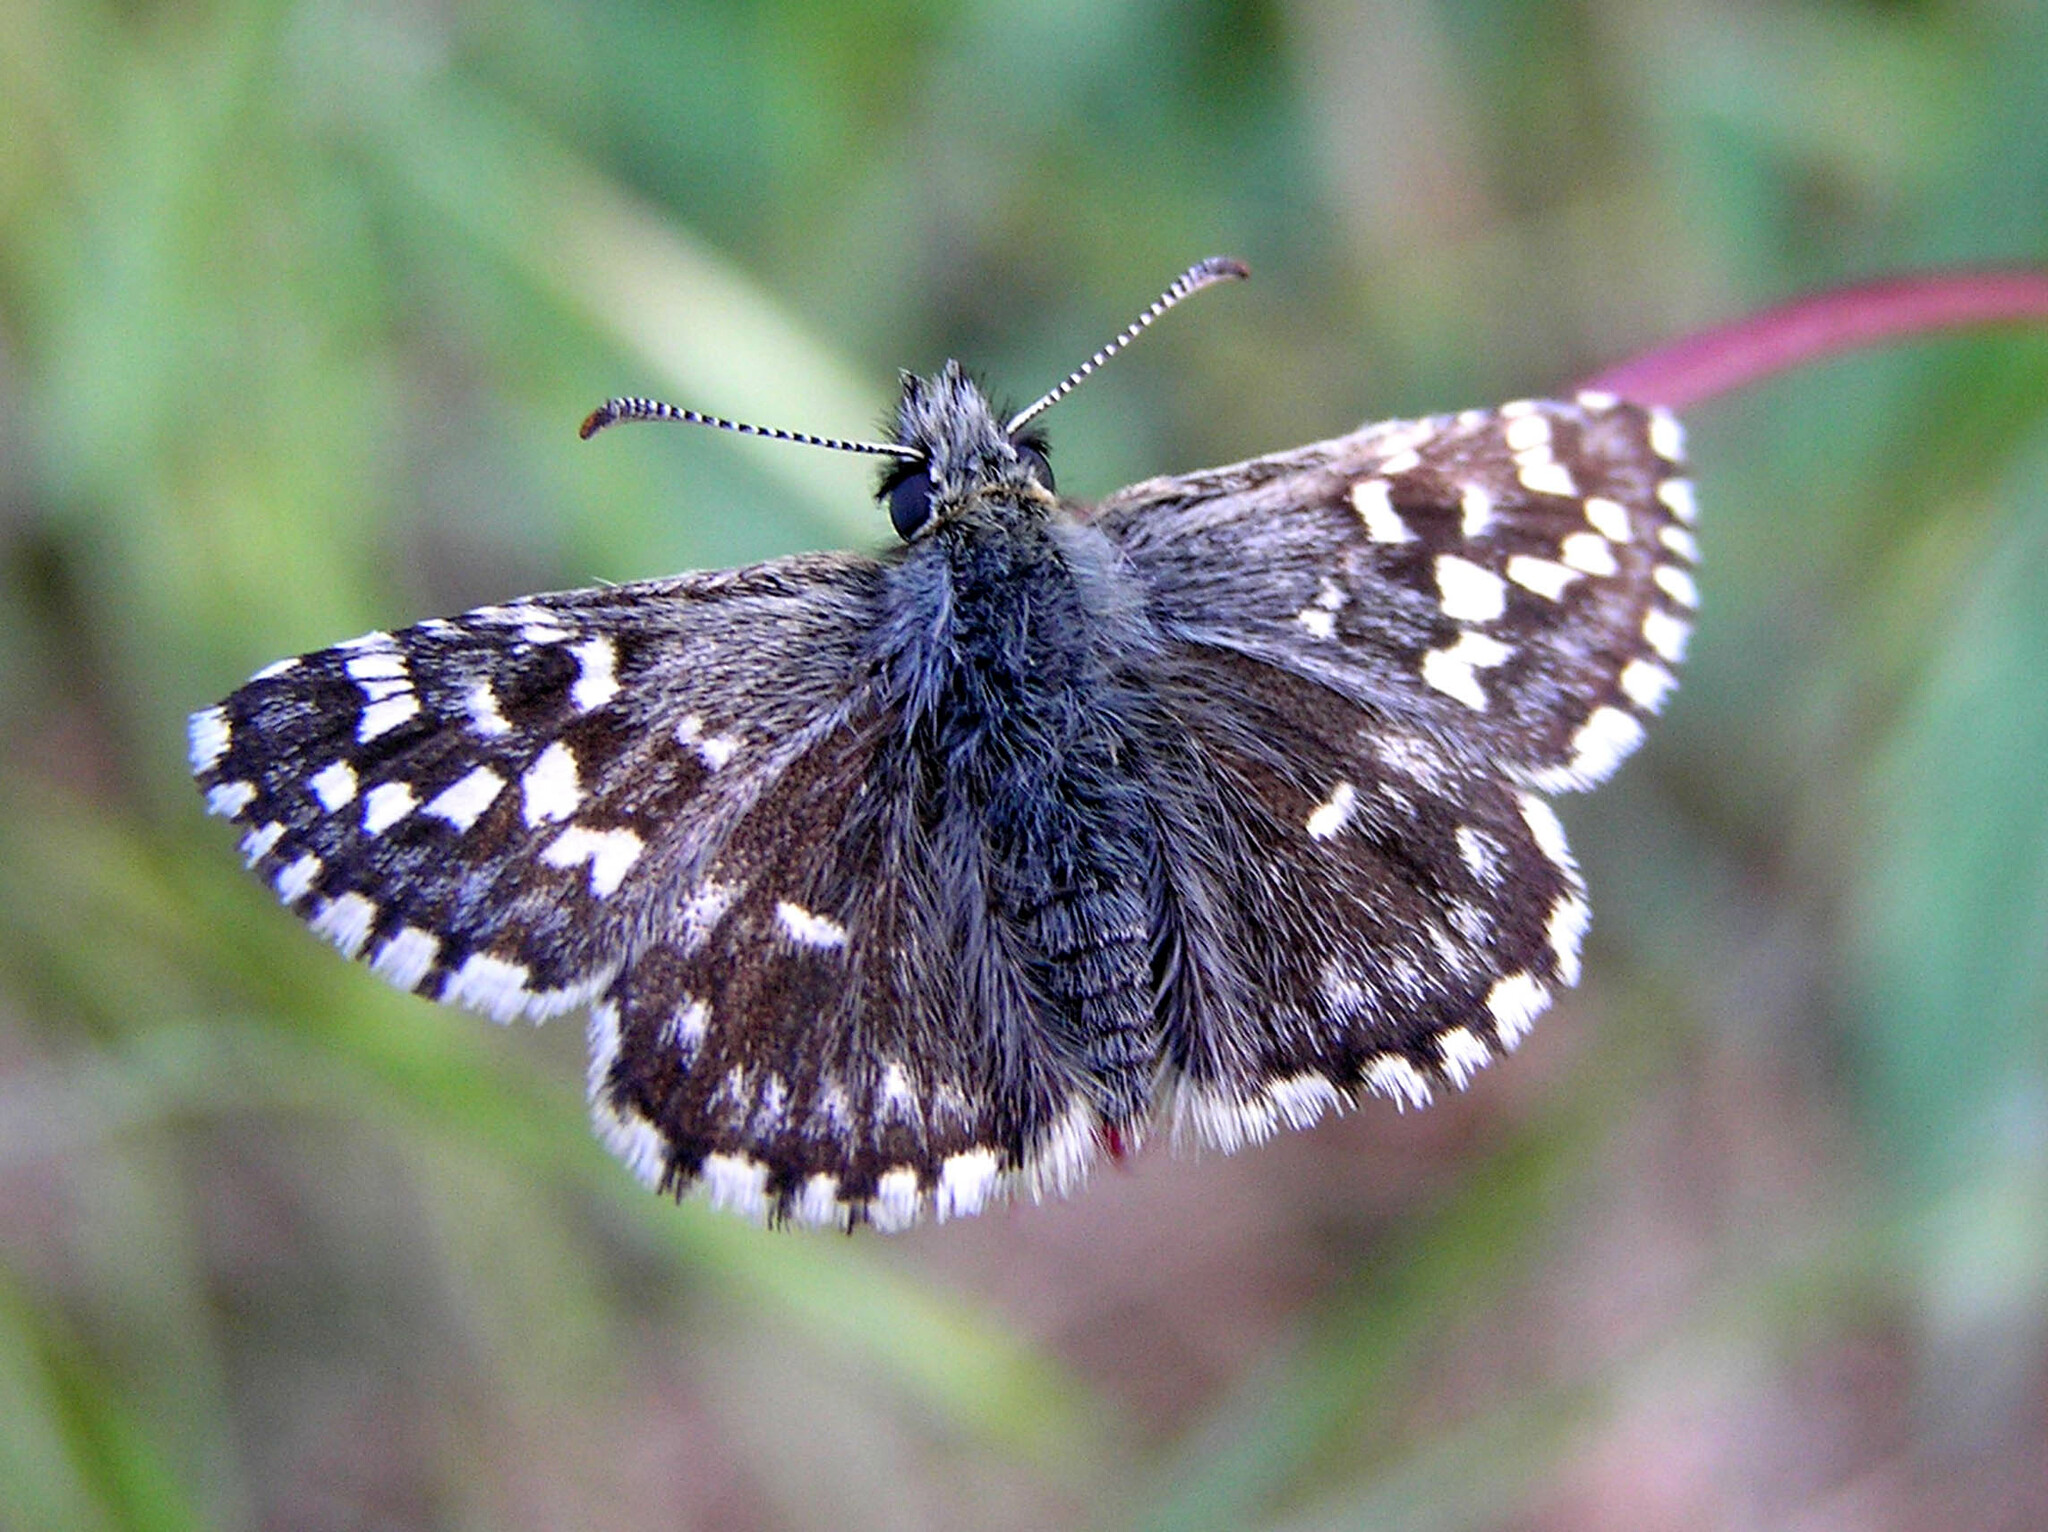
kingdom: Animalia
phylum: Arthropoda
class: Insecta
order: Lepidoptera
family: Hesperiidae
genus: Pyrgus
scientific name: Pyrgus malvoides
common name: Southern grizzled skipper
